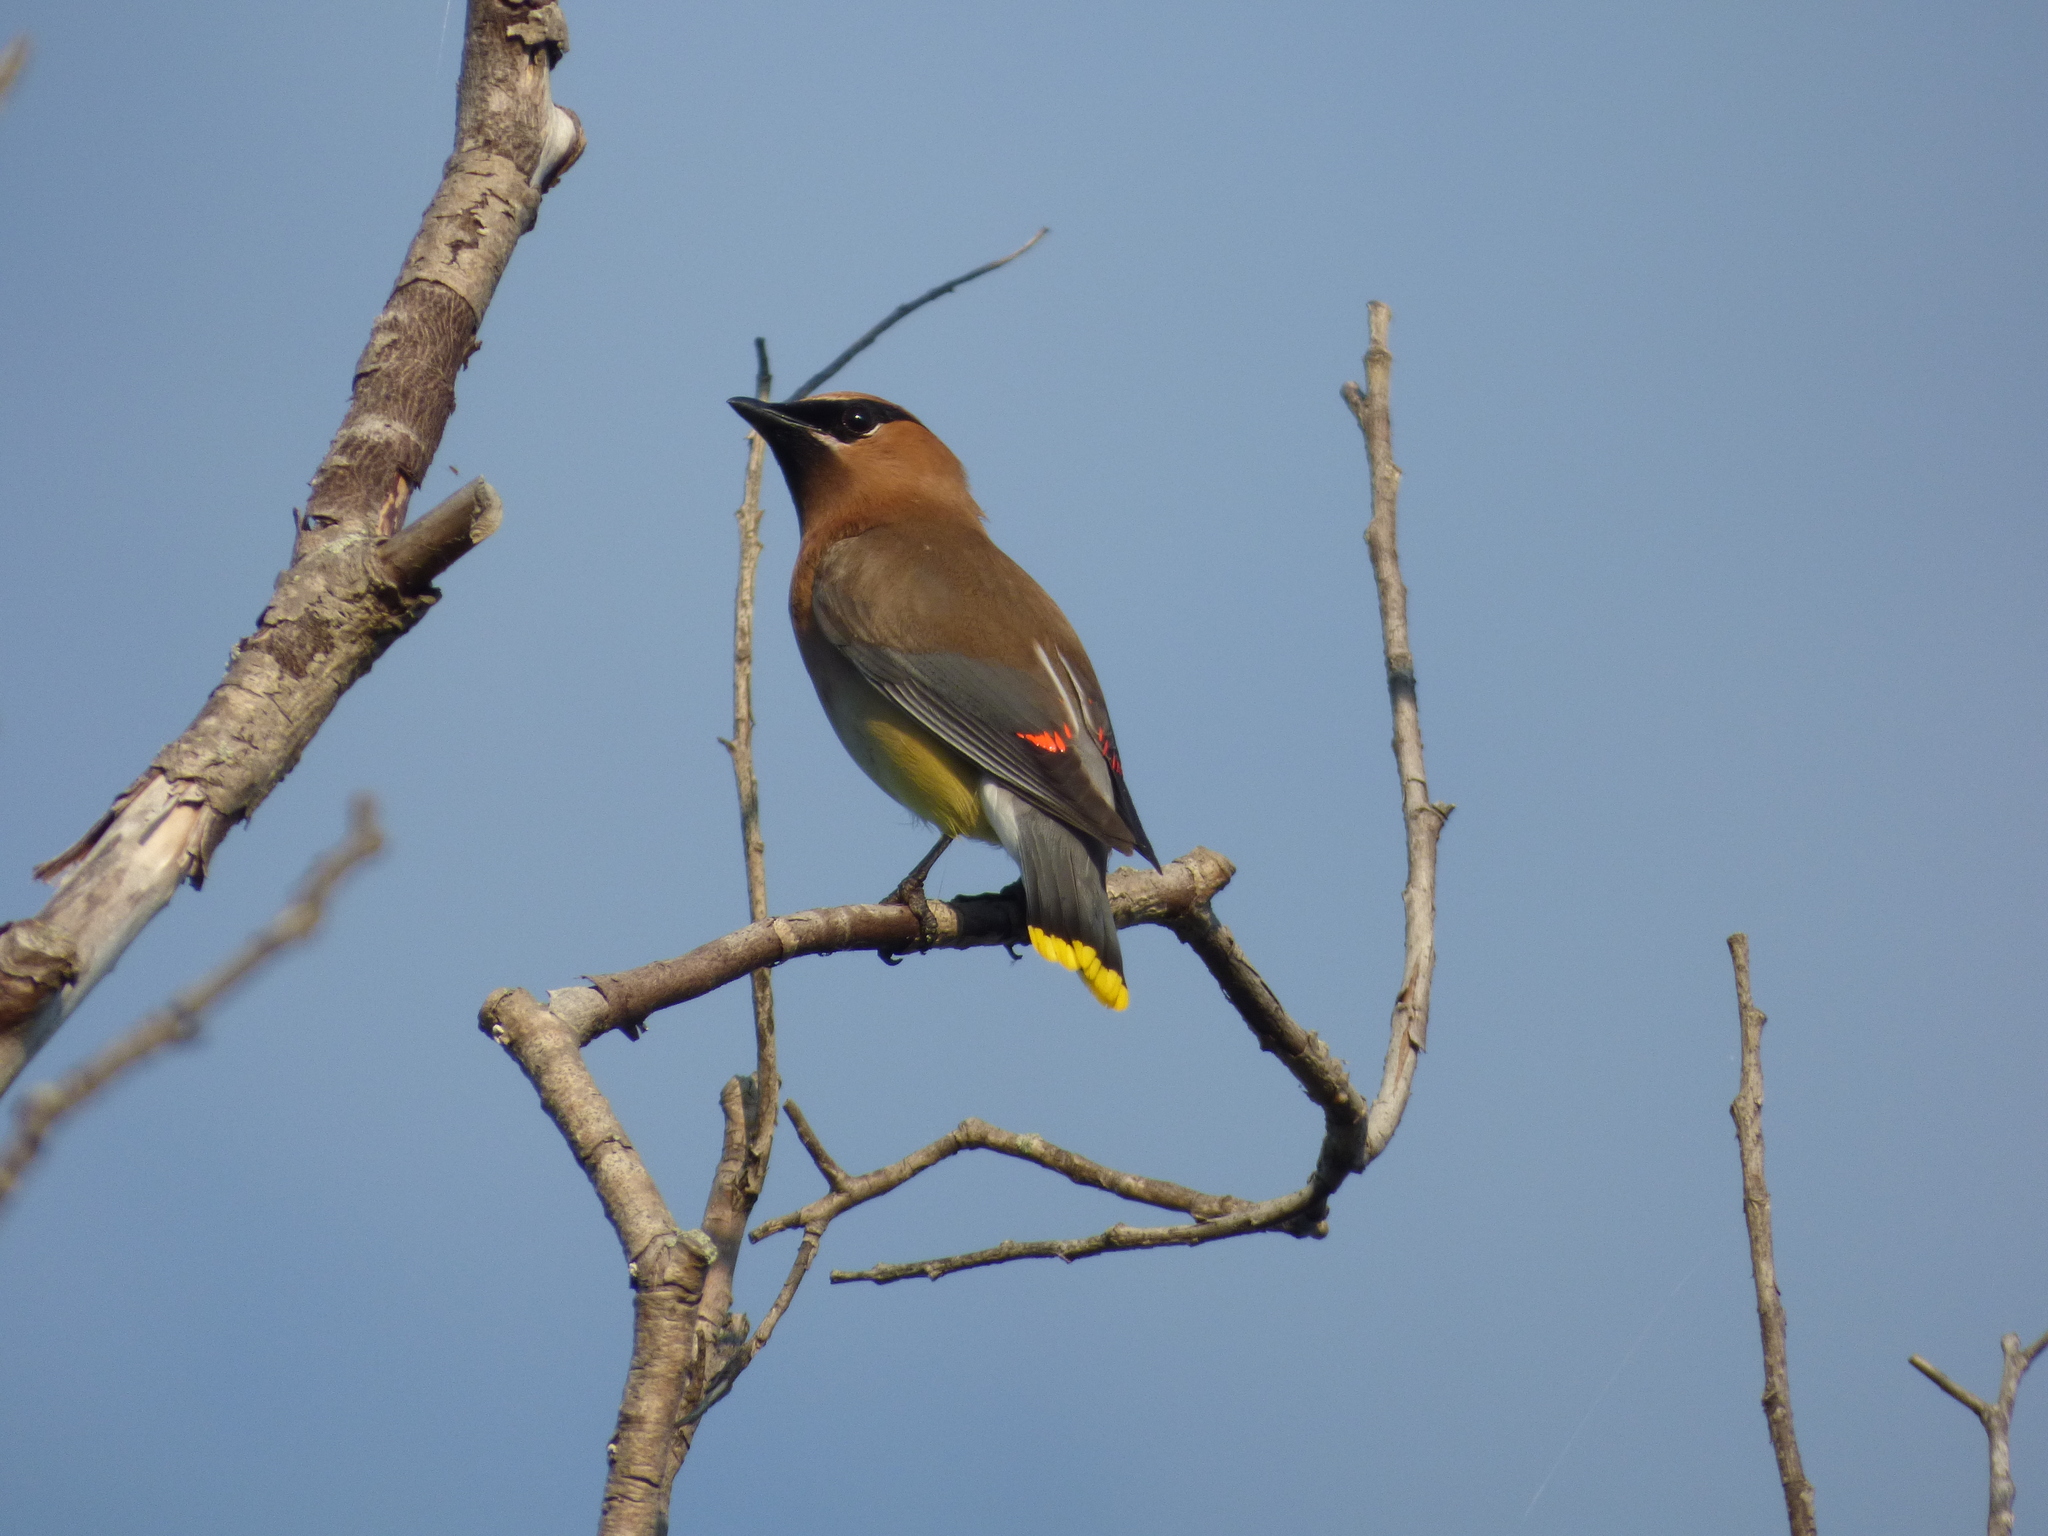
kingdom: Animalia
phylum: Chordata
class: Aves
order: Passeriformes
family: Bombycillidae
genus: Bombycilla
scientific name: Bombycilla cedrorum
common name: Cedar waxwing
